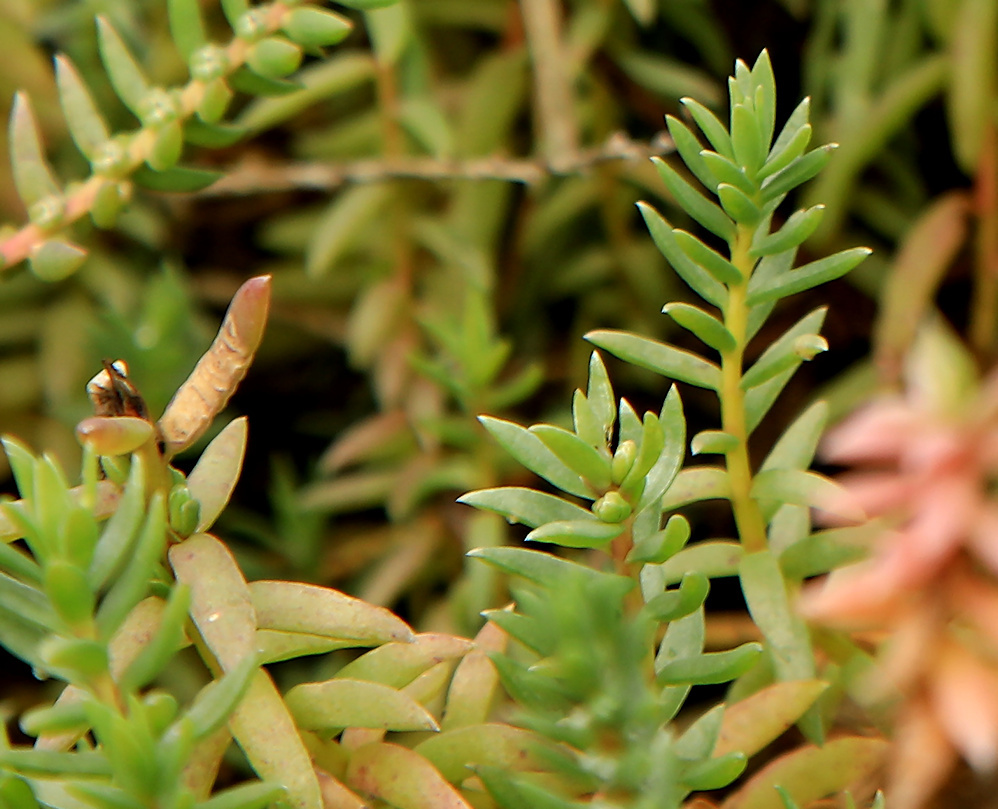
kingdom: Plantae
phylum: Tracheophyta
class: Magnoliopsida
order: Caryophyllales
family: Amaranthaceae
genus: Chenolea
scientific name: Chenolea diffusa
